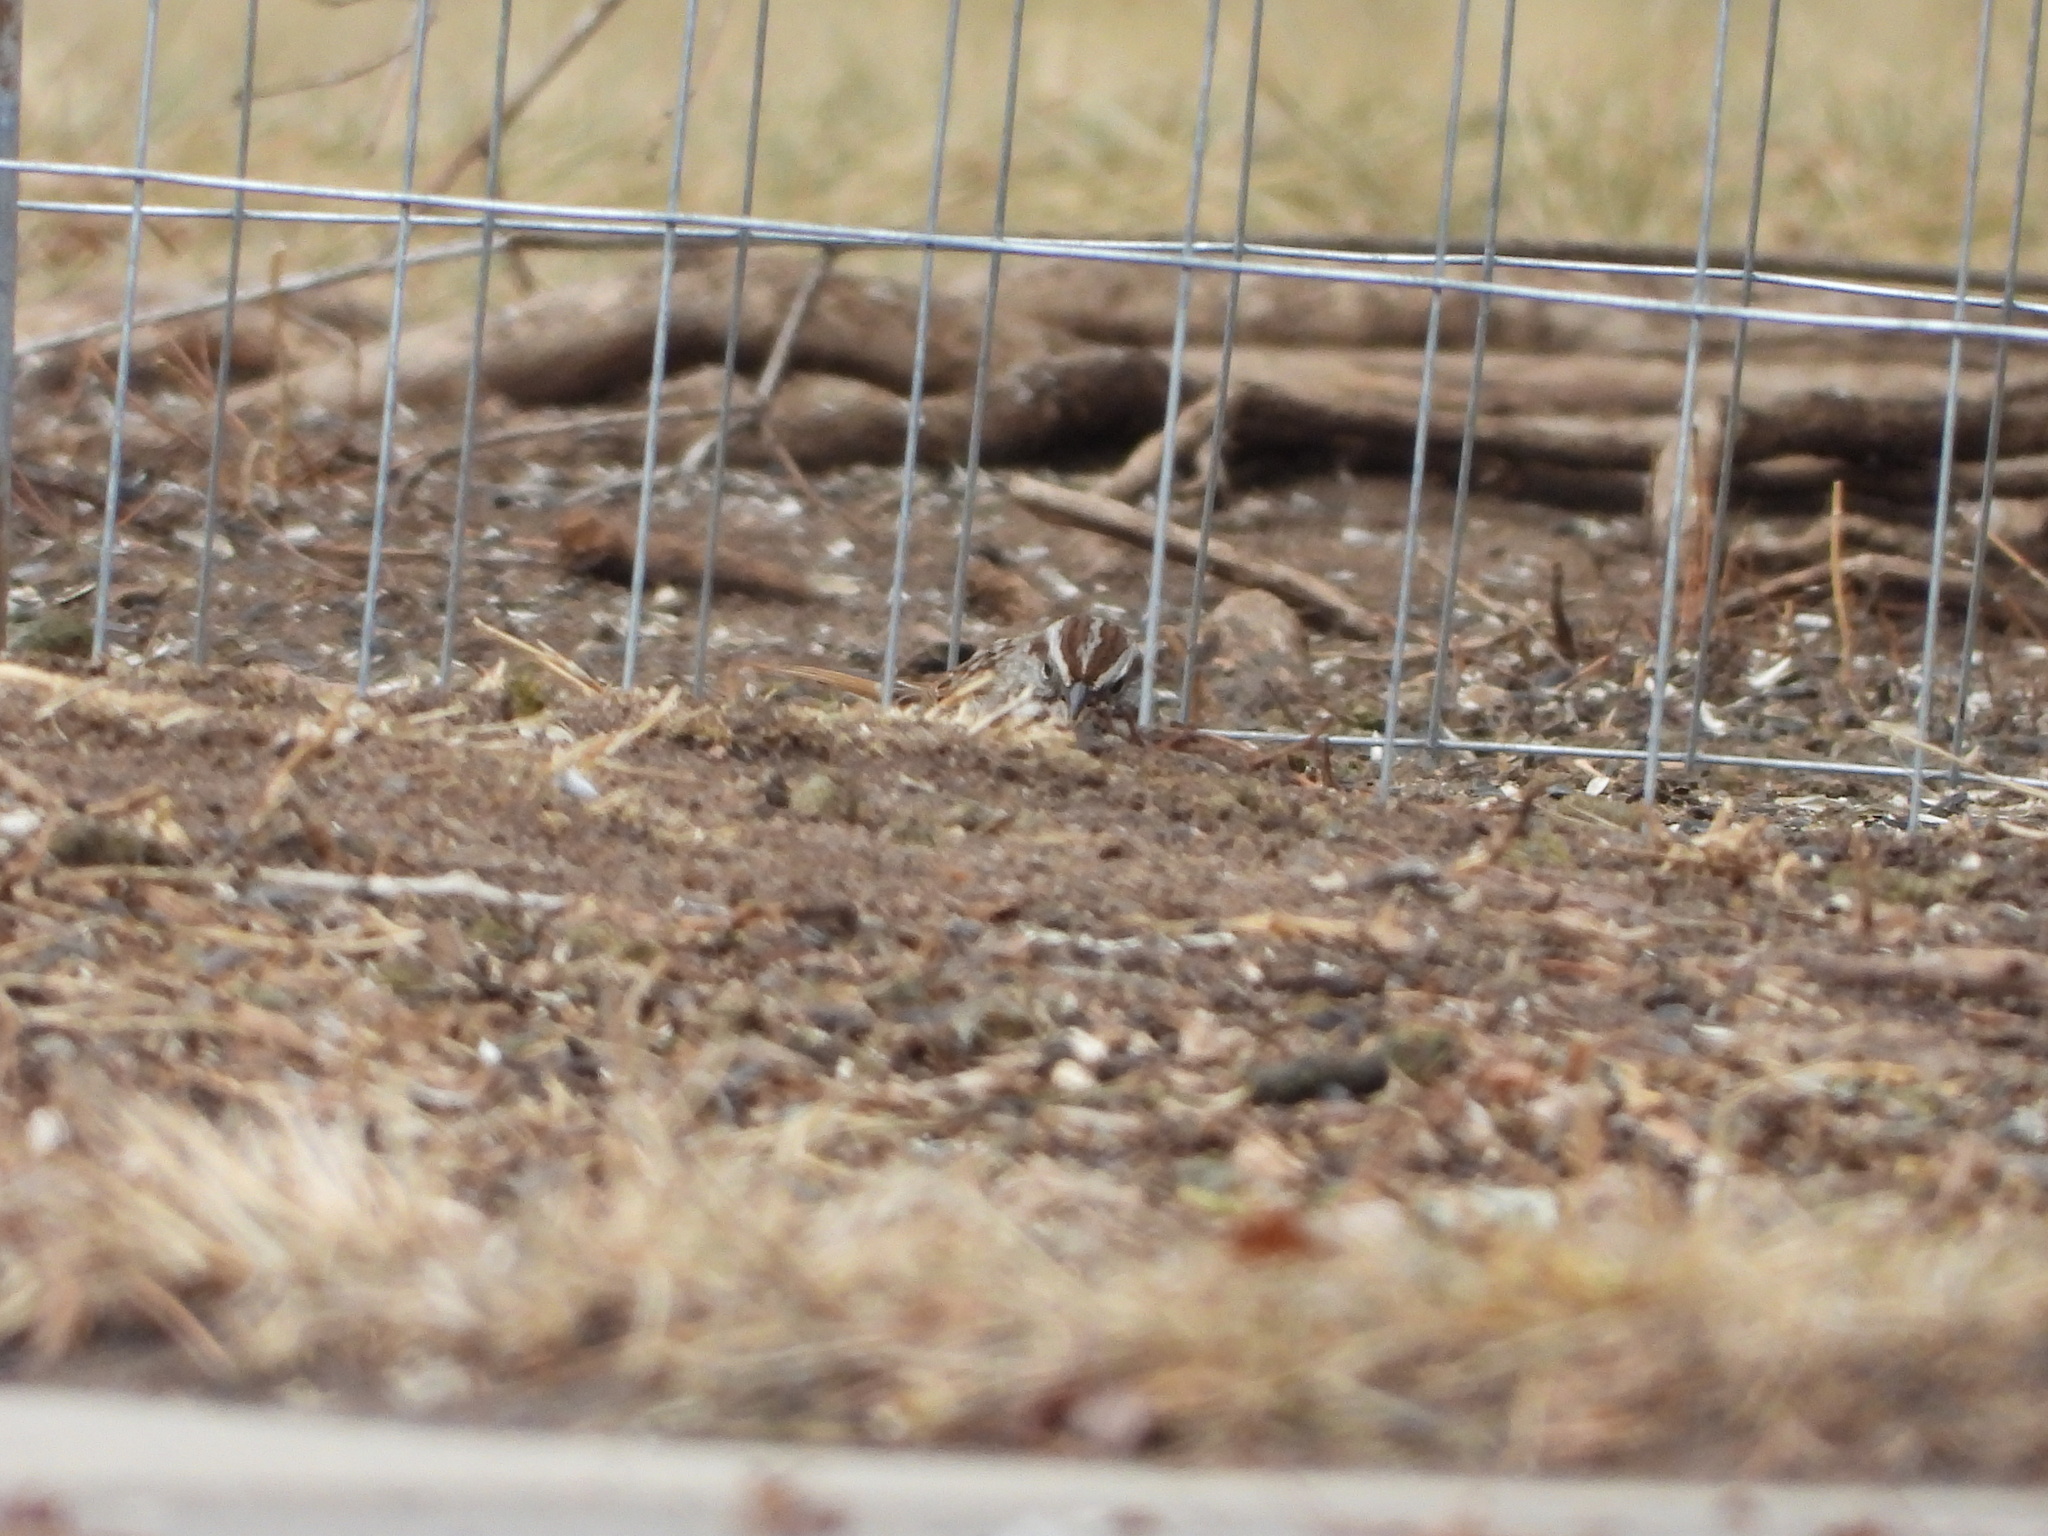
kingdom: Animalia
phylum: Chordata
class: Aves
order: Passeriformes
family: Passerellidae
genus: Melospiza
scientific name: Melospiza melodia
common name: Song sparrow
